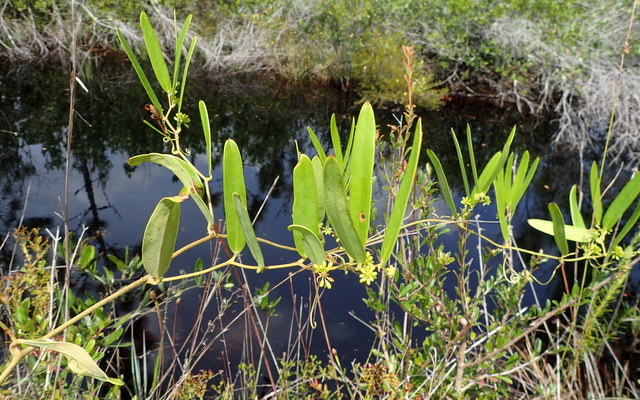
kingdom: Plantae
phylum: Tracheophyta
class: Liliopsida
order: Liliales
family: Smilacaceae
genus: Smilax
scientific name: Smilax laurifolia
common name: Bamboovine
